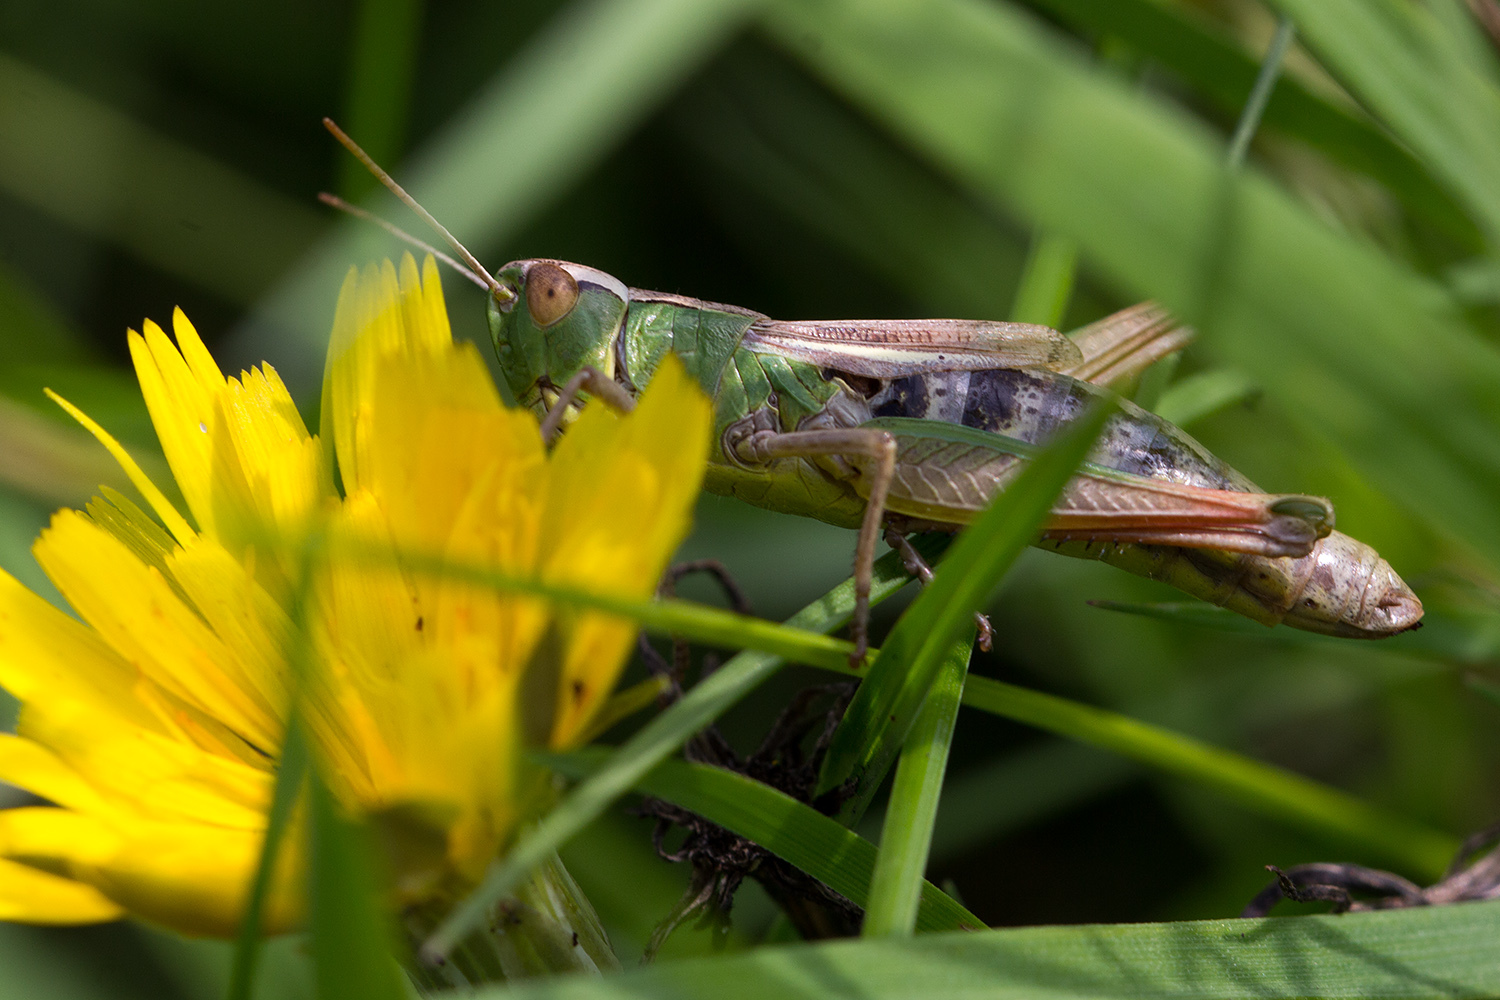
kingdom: Animalia
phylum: Arthropoda
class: Insecta
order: Orthoptera
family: Acrididae
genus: Pseudochorthippus
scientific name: Pseudochorthippus parallelus
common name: Meadow grasshopper
